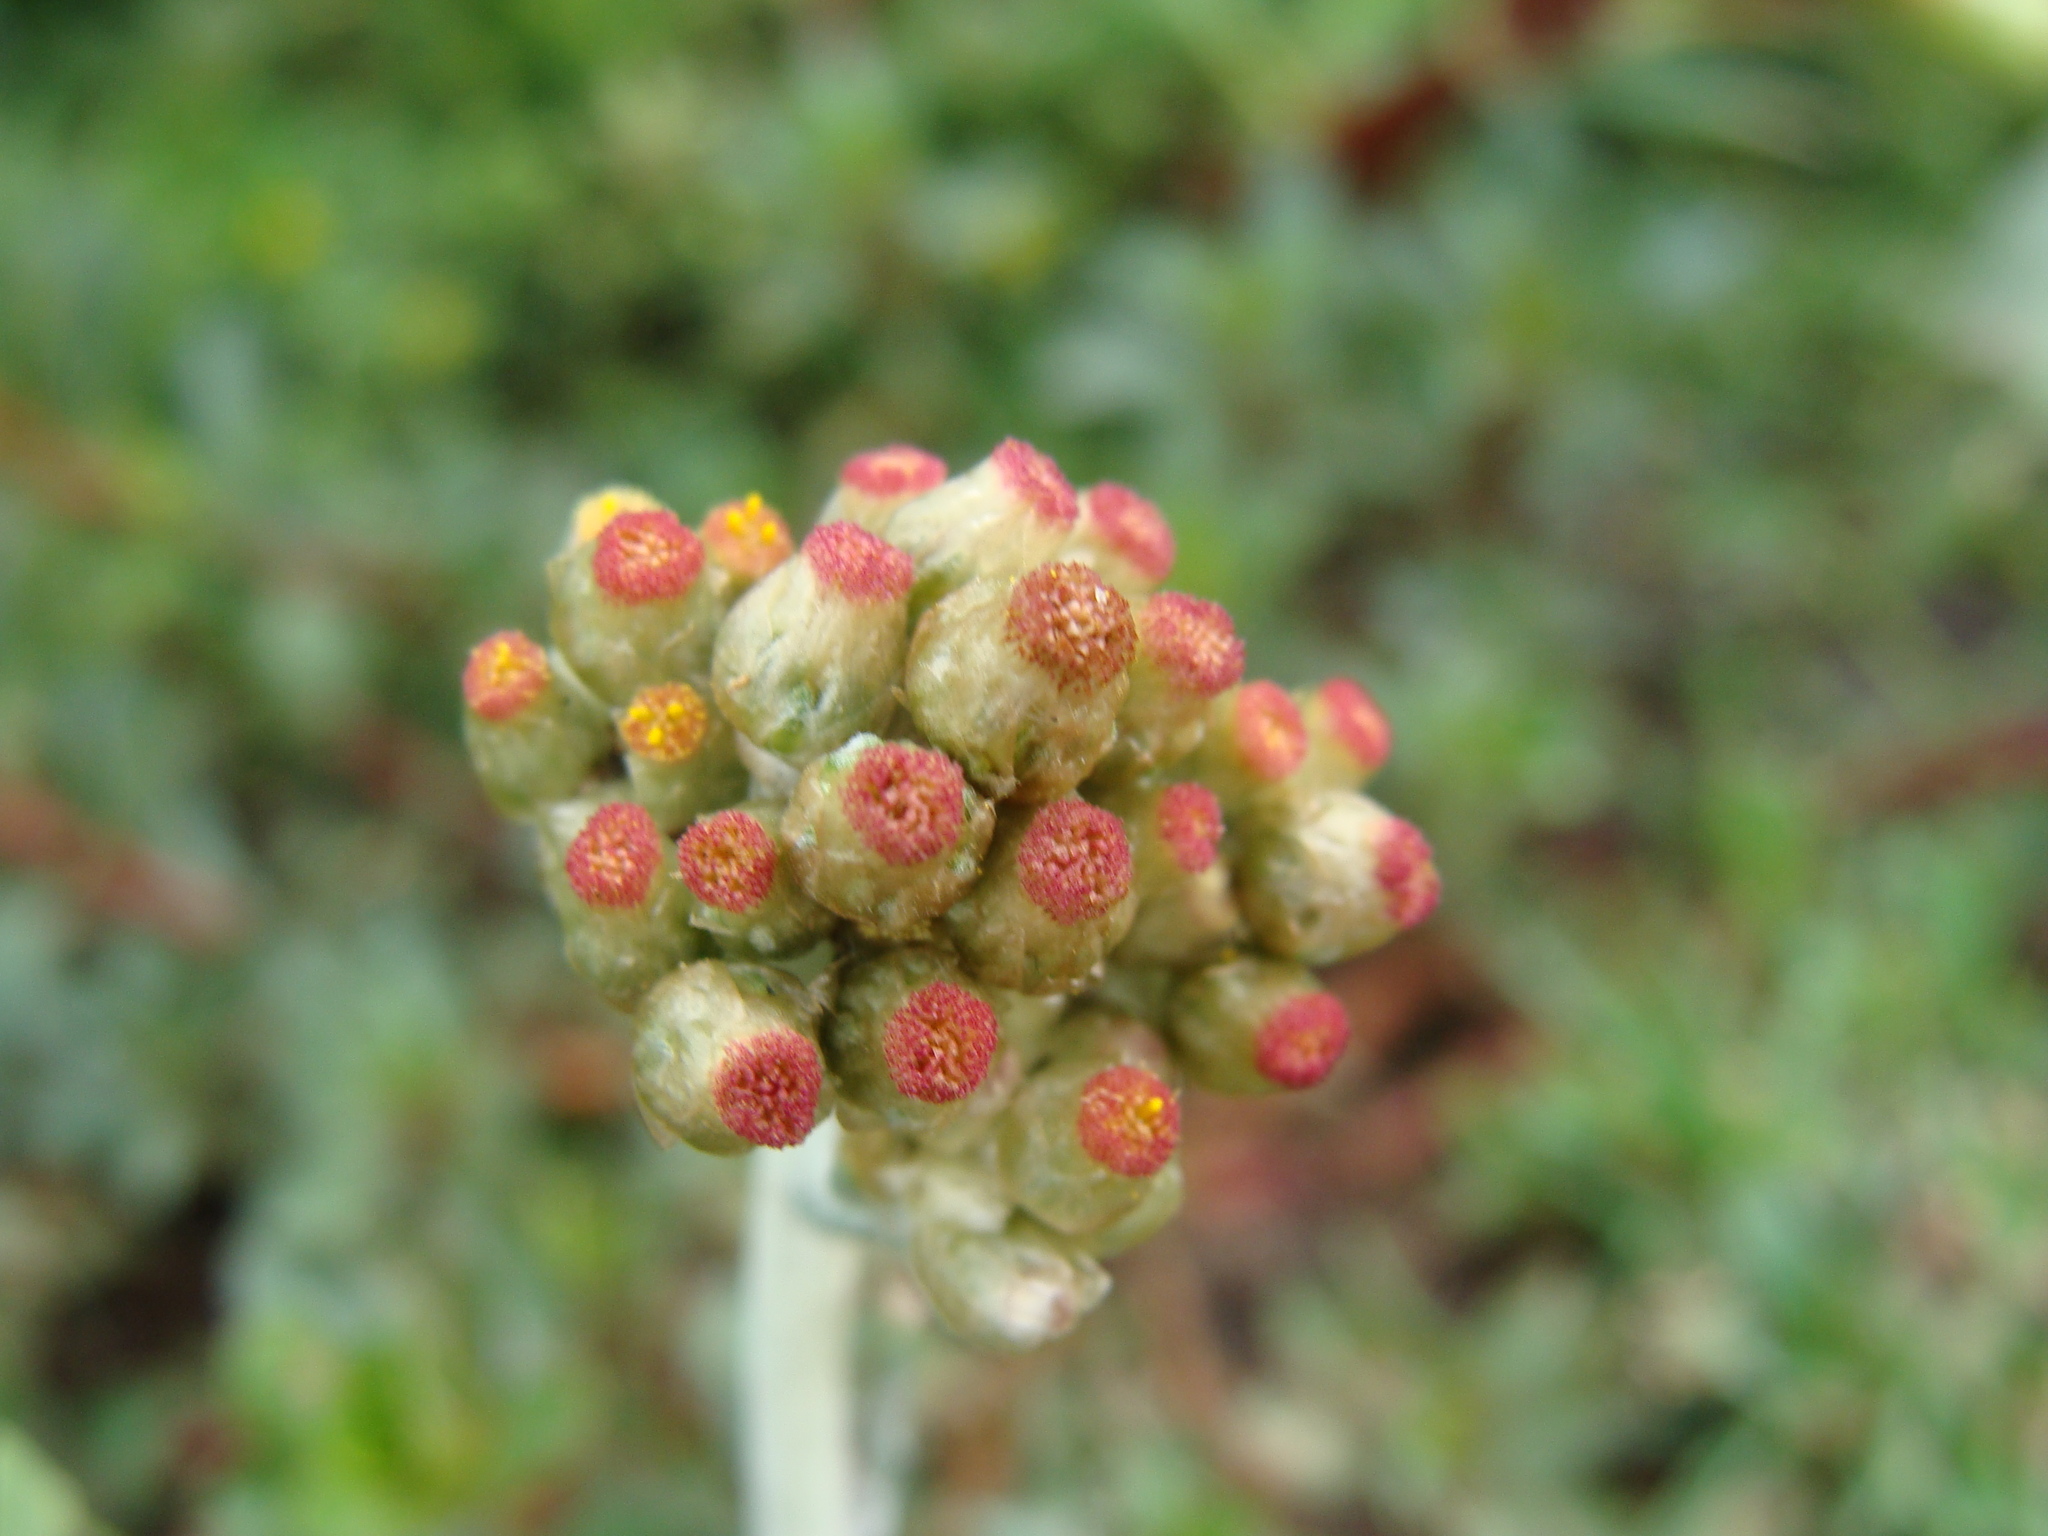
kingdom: Plantae
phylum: Tracheophyta
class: Magnoliopsida
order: Asterales
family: Asteraceae
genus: Helichrysum
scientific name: Helichrysum luteoalbum
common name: Daisy
